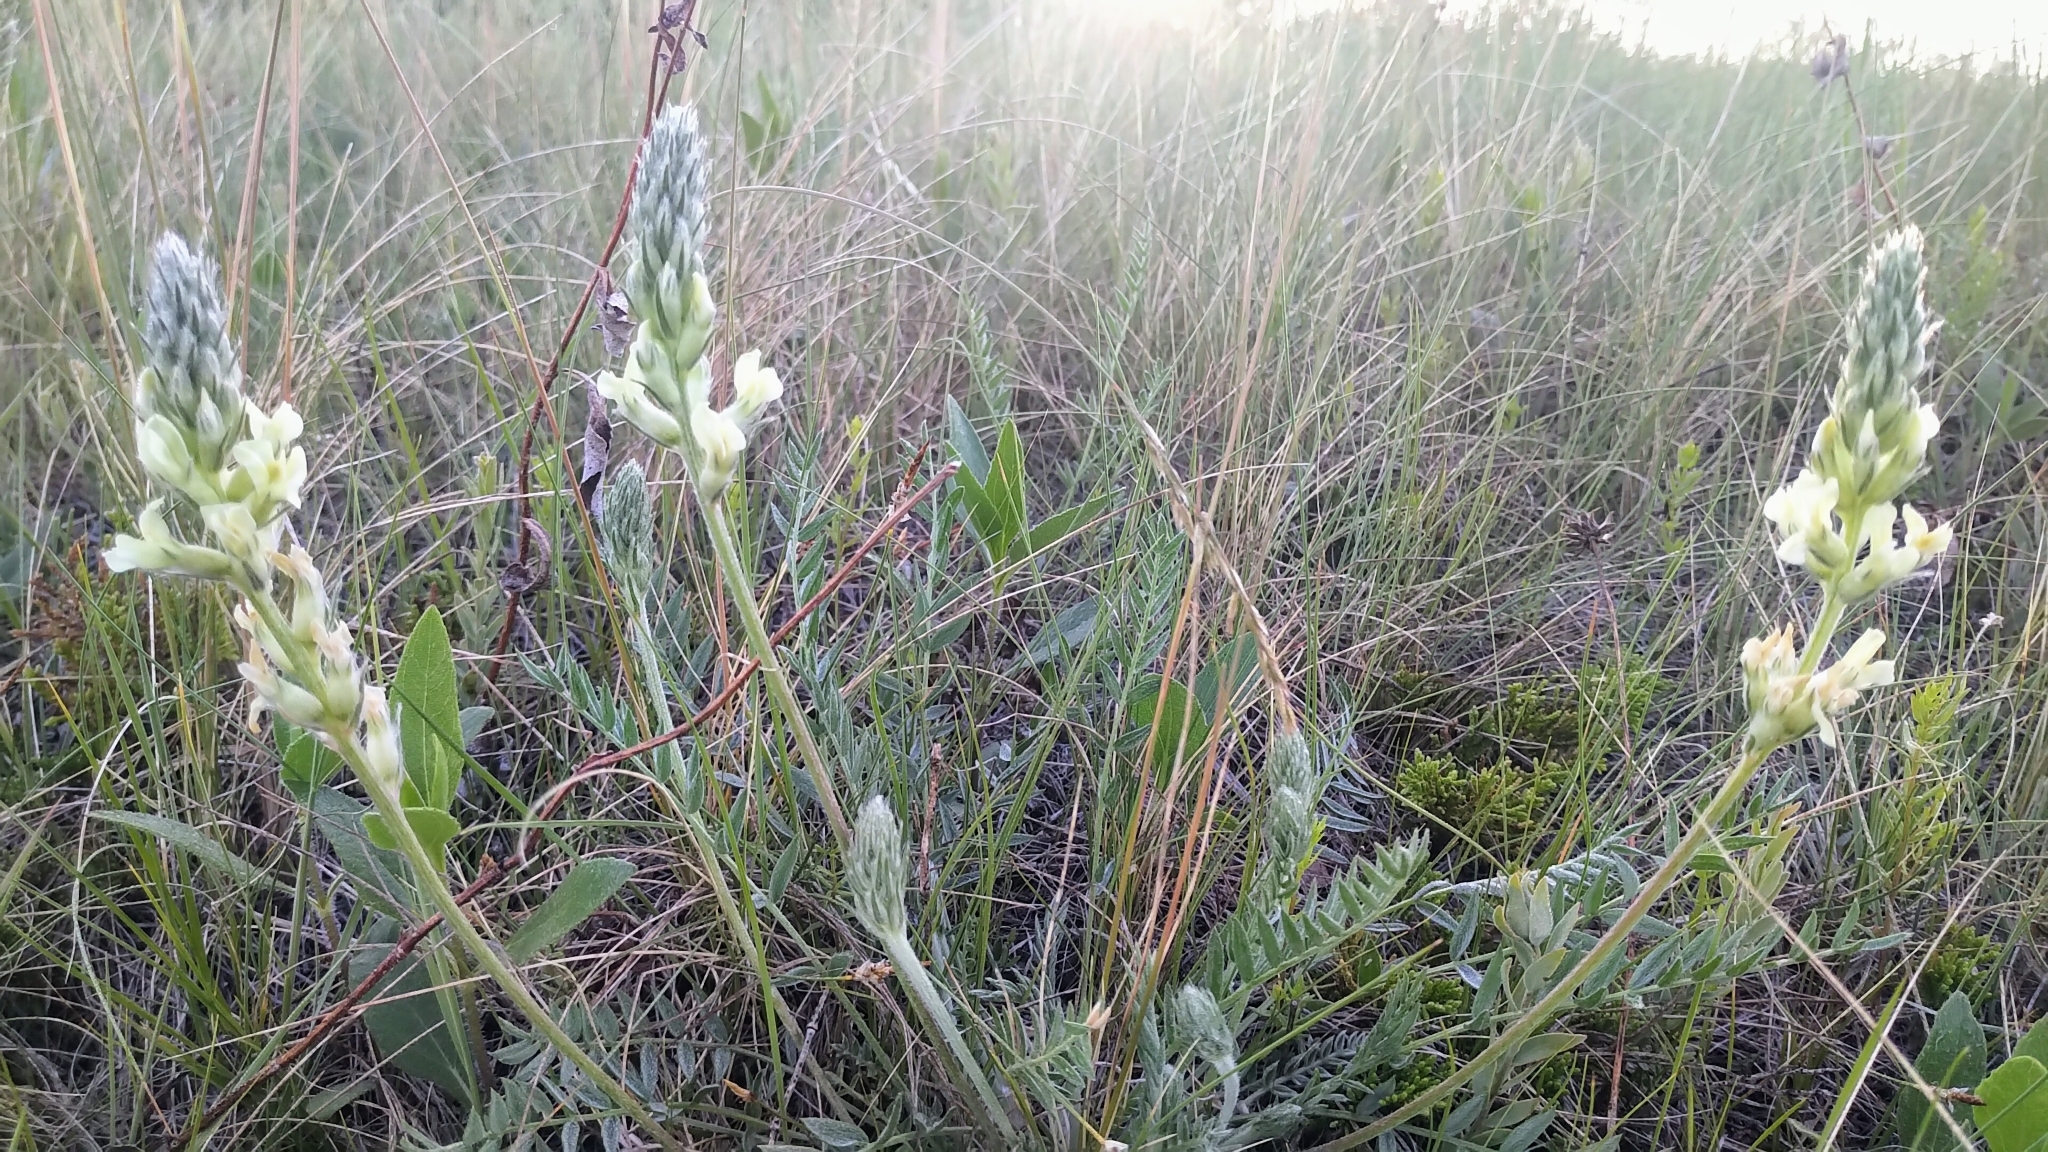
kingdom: Plantae
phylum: Tracheophyta
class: Magnoliopsida
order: Fabales
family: Fabaceae
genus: Oxytropis
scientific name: Oxytropis campestris
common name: Field locoweed
